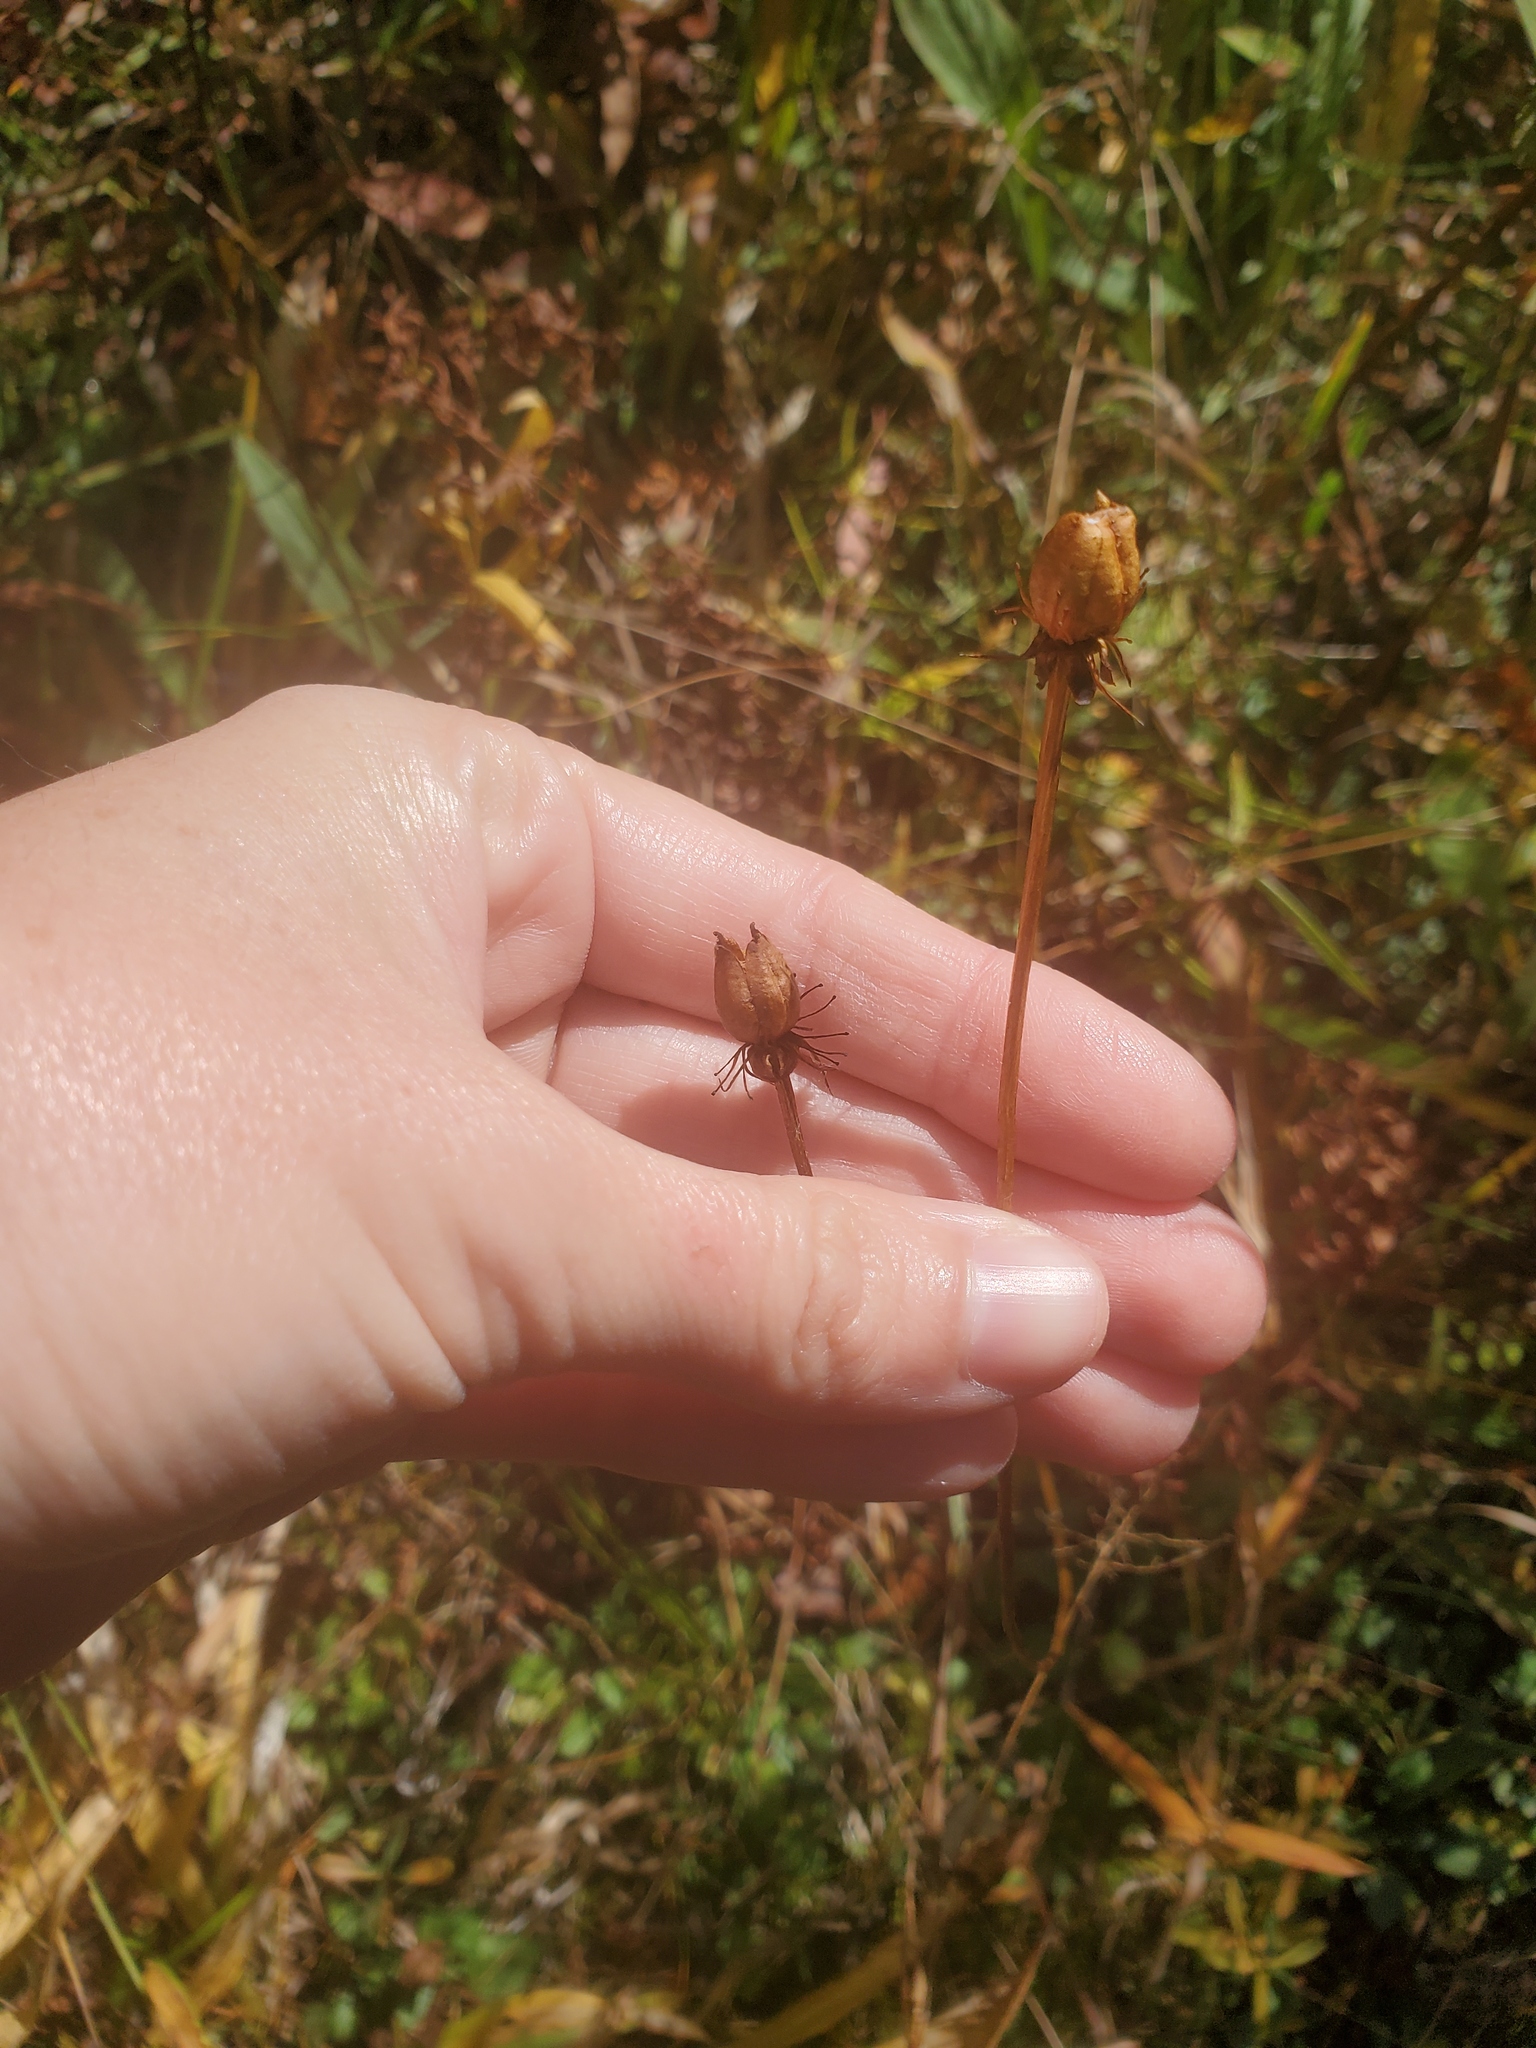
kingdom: Plantae
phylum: Tracheophyta
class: Magnoliopsida
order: Celastrales
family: Parnassiaceae
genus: Parnassia
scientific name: Parnassia glauca
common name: American grass-of-parnassus
